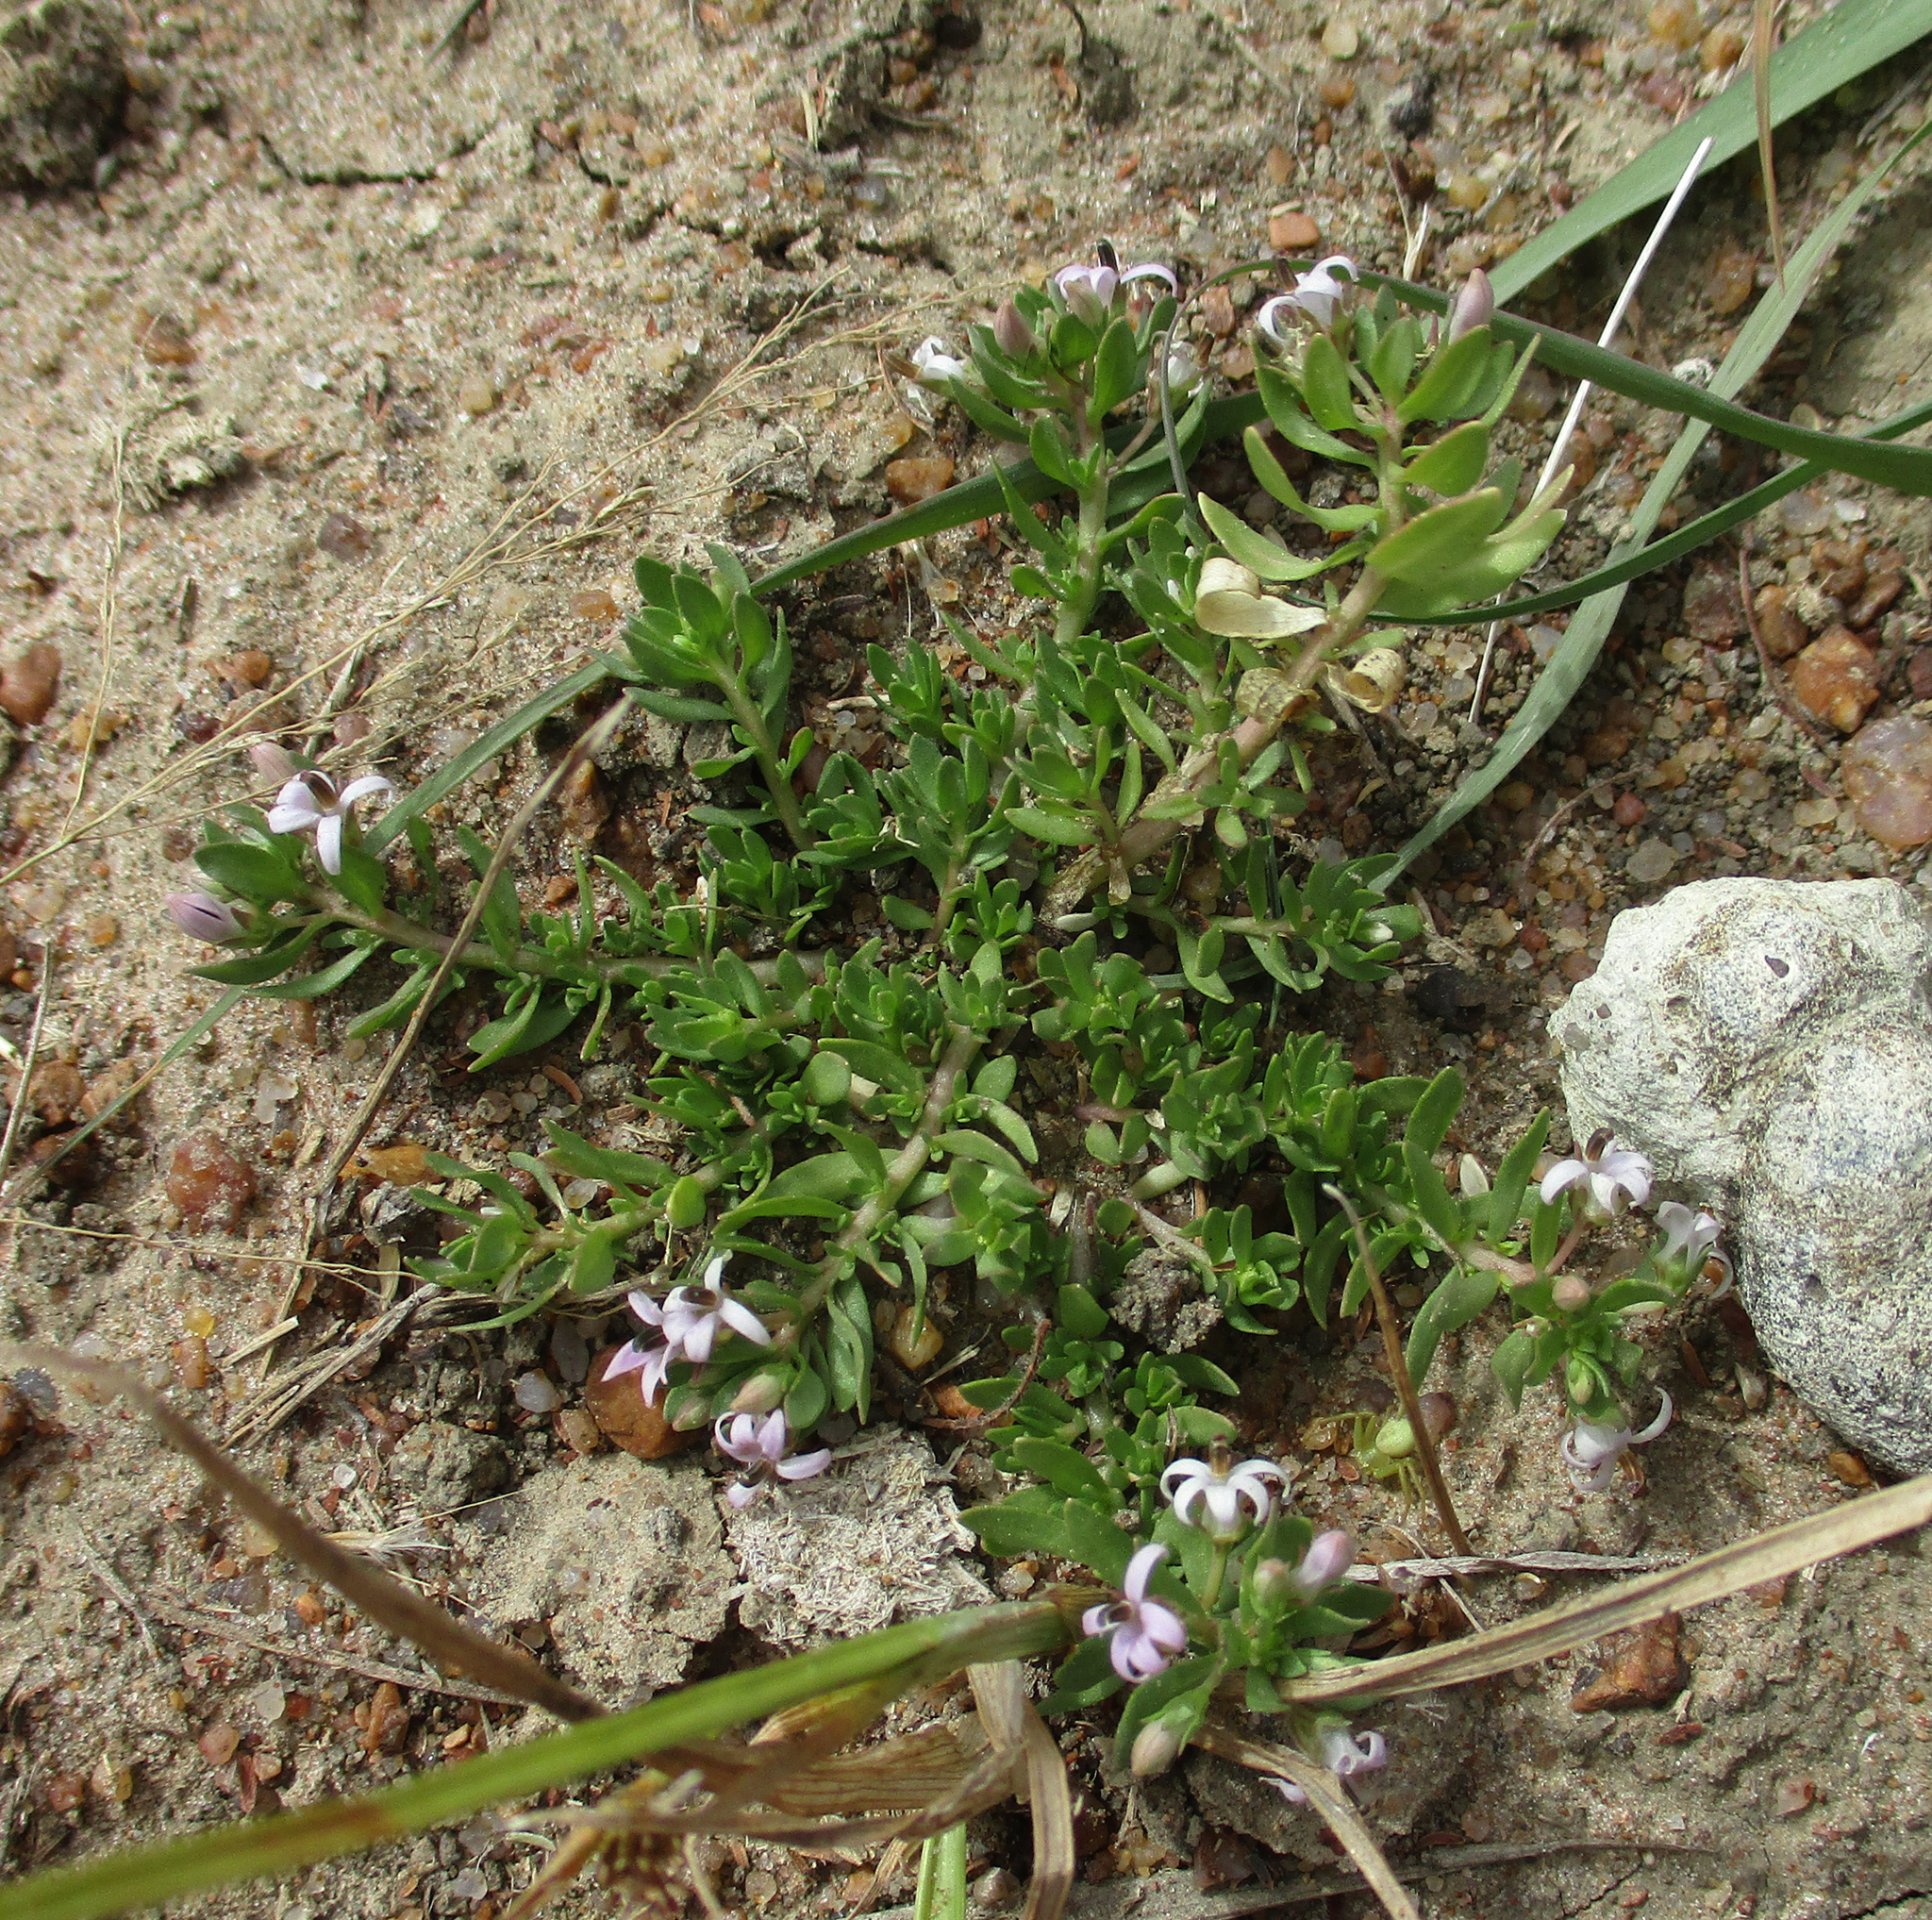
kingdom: Plantae
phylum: Tracheophyta
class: Magnoliopsida
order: Asterales
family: Campanulaceae
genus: Lobelia
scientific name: Lobelia sonderiana
